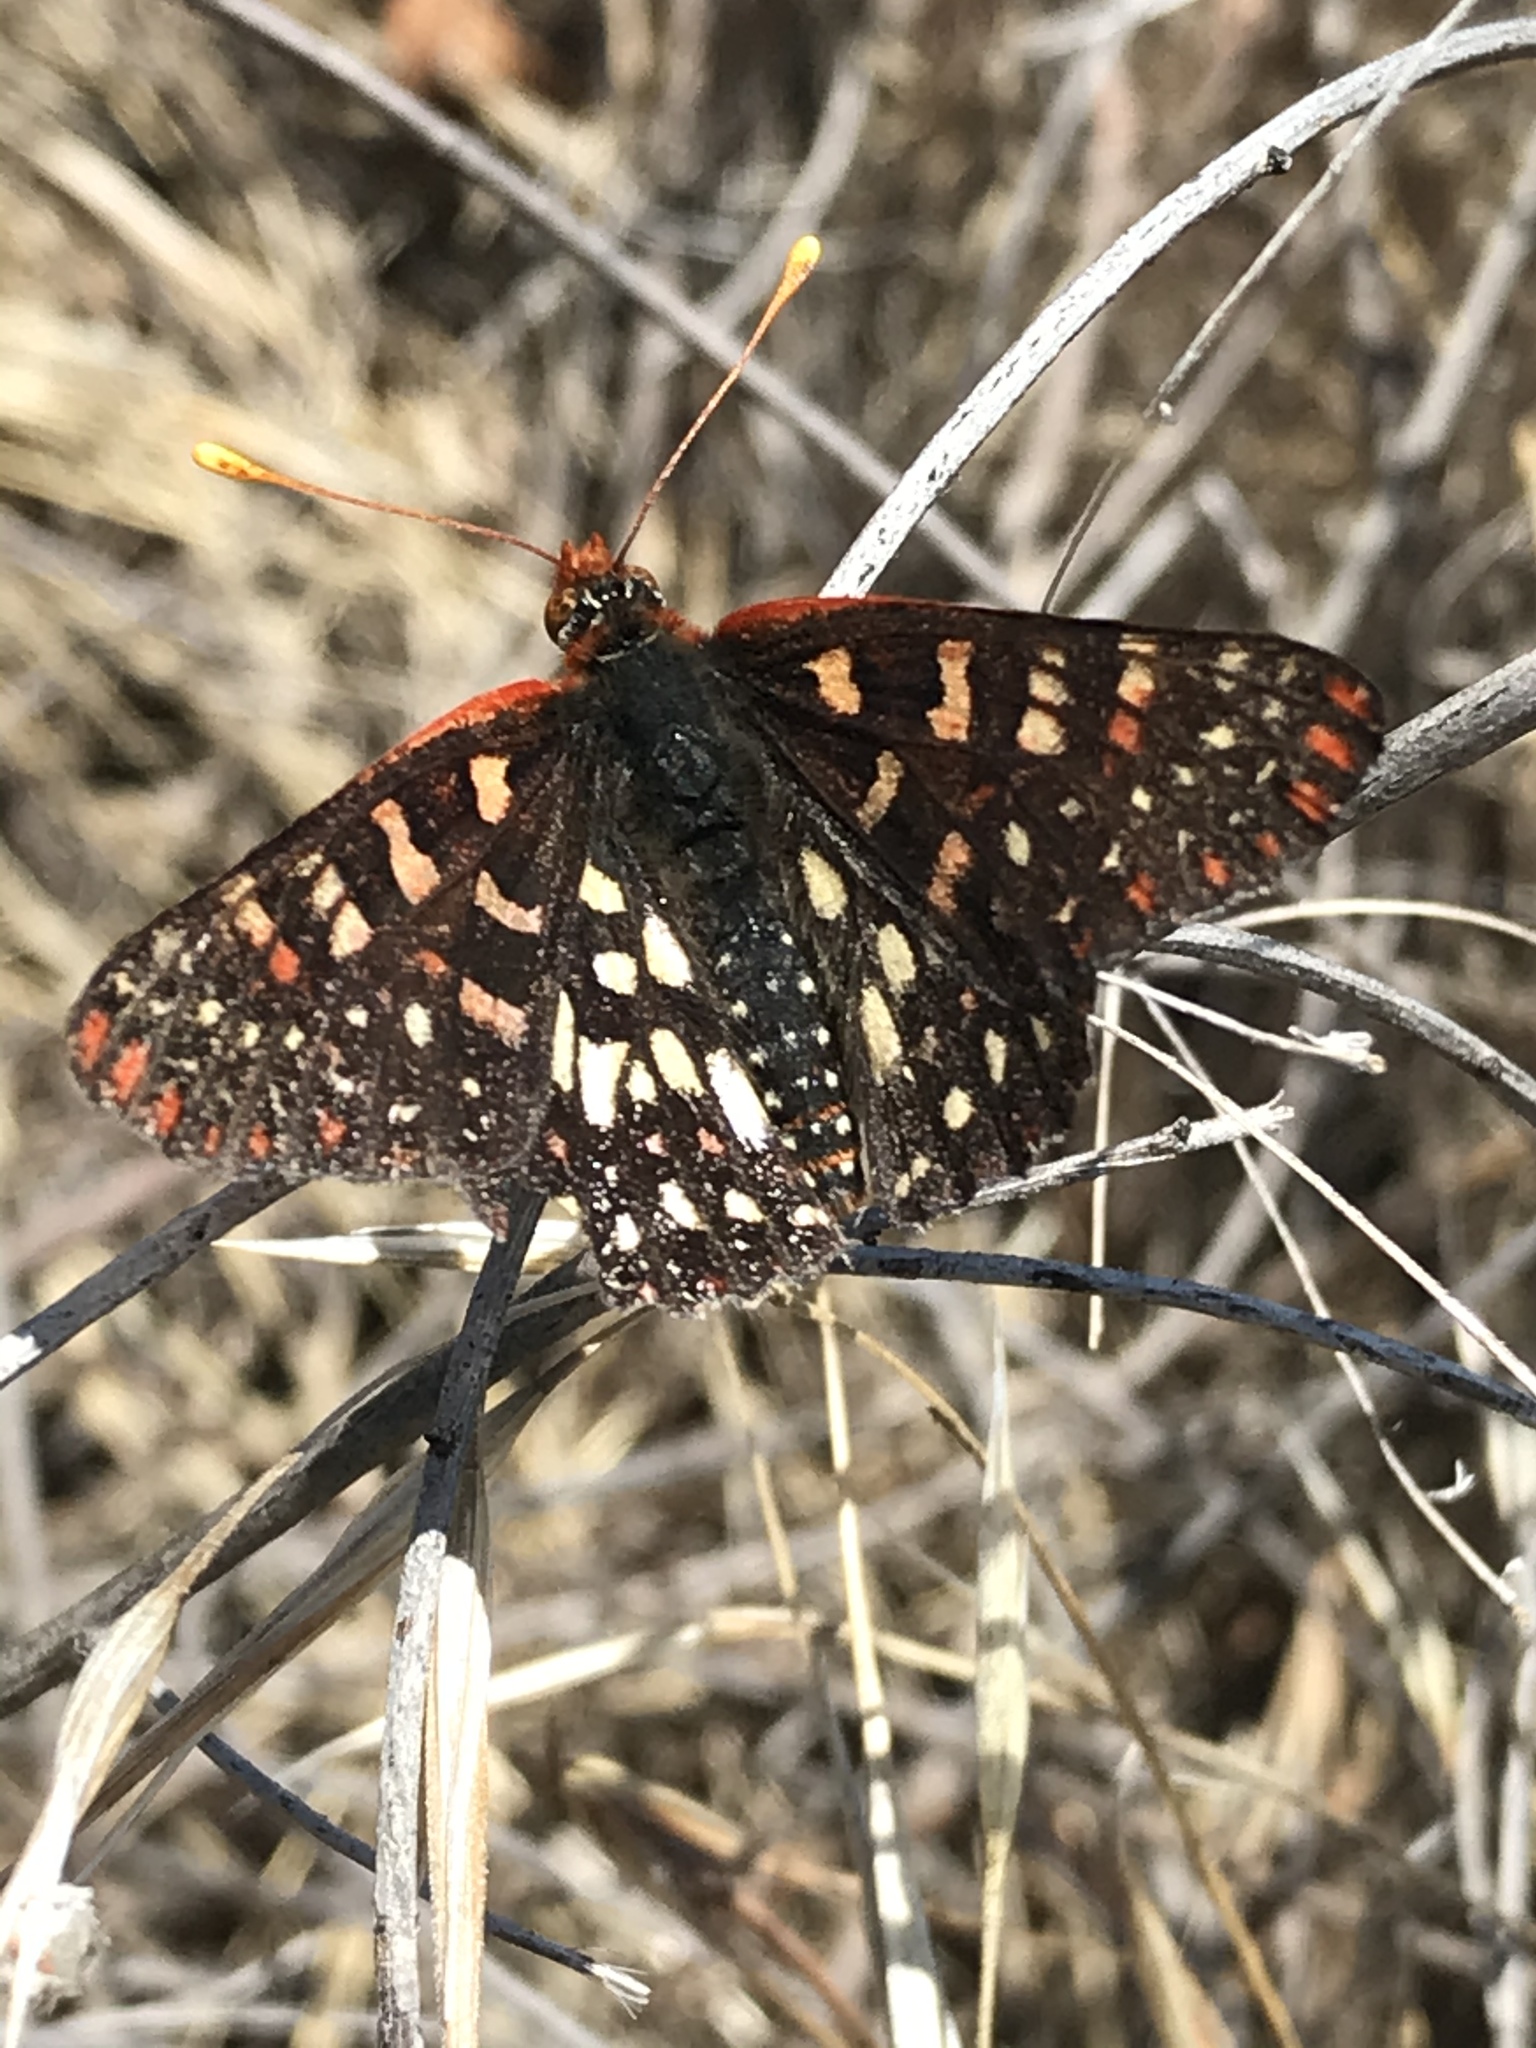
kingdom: Animalia
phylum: Arthropoda
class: Insecta
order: Lepidoptera
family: Nymphalidae
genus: Occidryas
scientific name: Occidryas chalcedona
